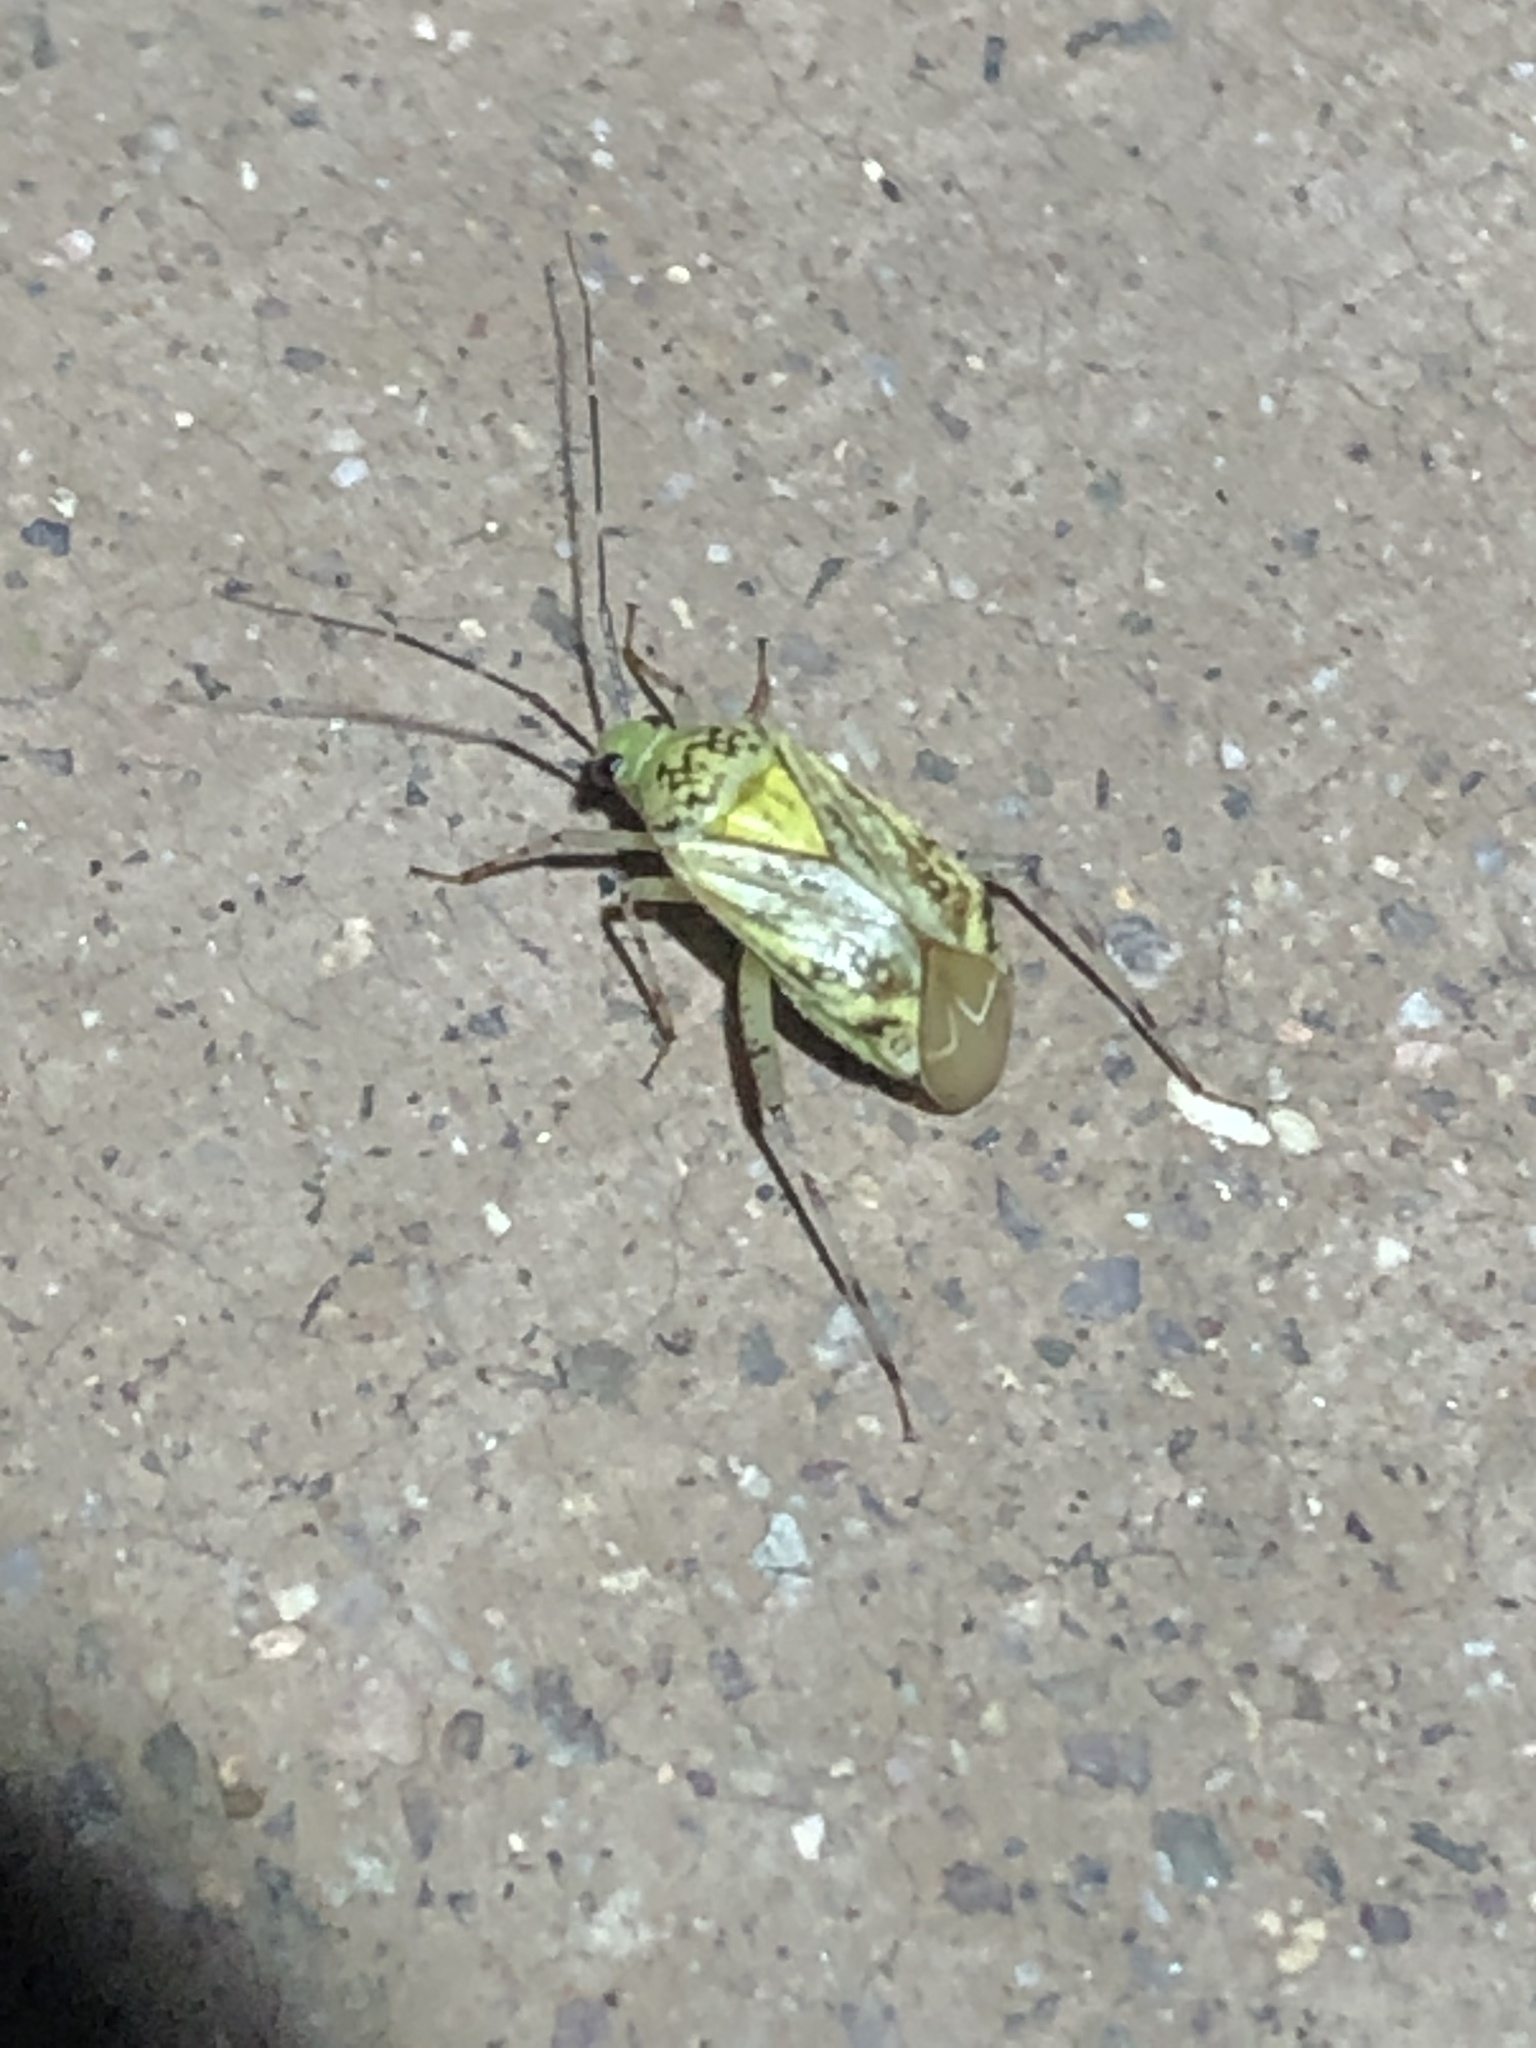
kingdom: Animalia
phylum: Arthropoda
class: Insecta
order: Hemiptera
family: Miridae
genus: Taedia
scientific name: Taedia marmorata
